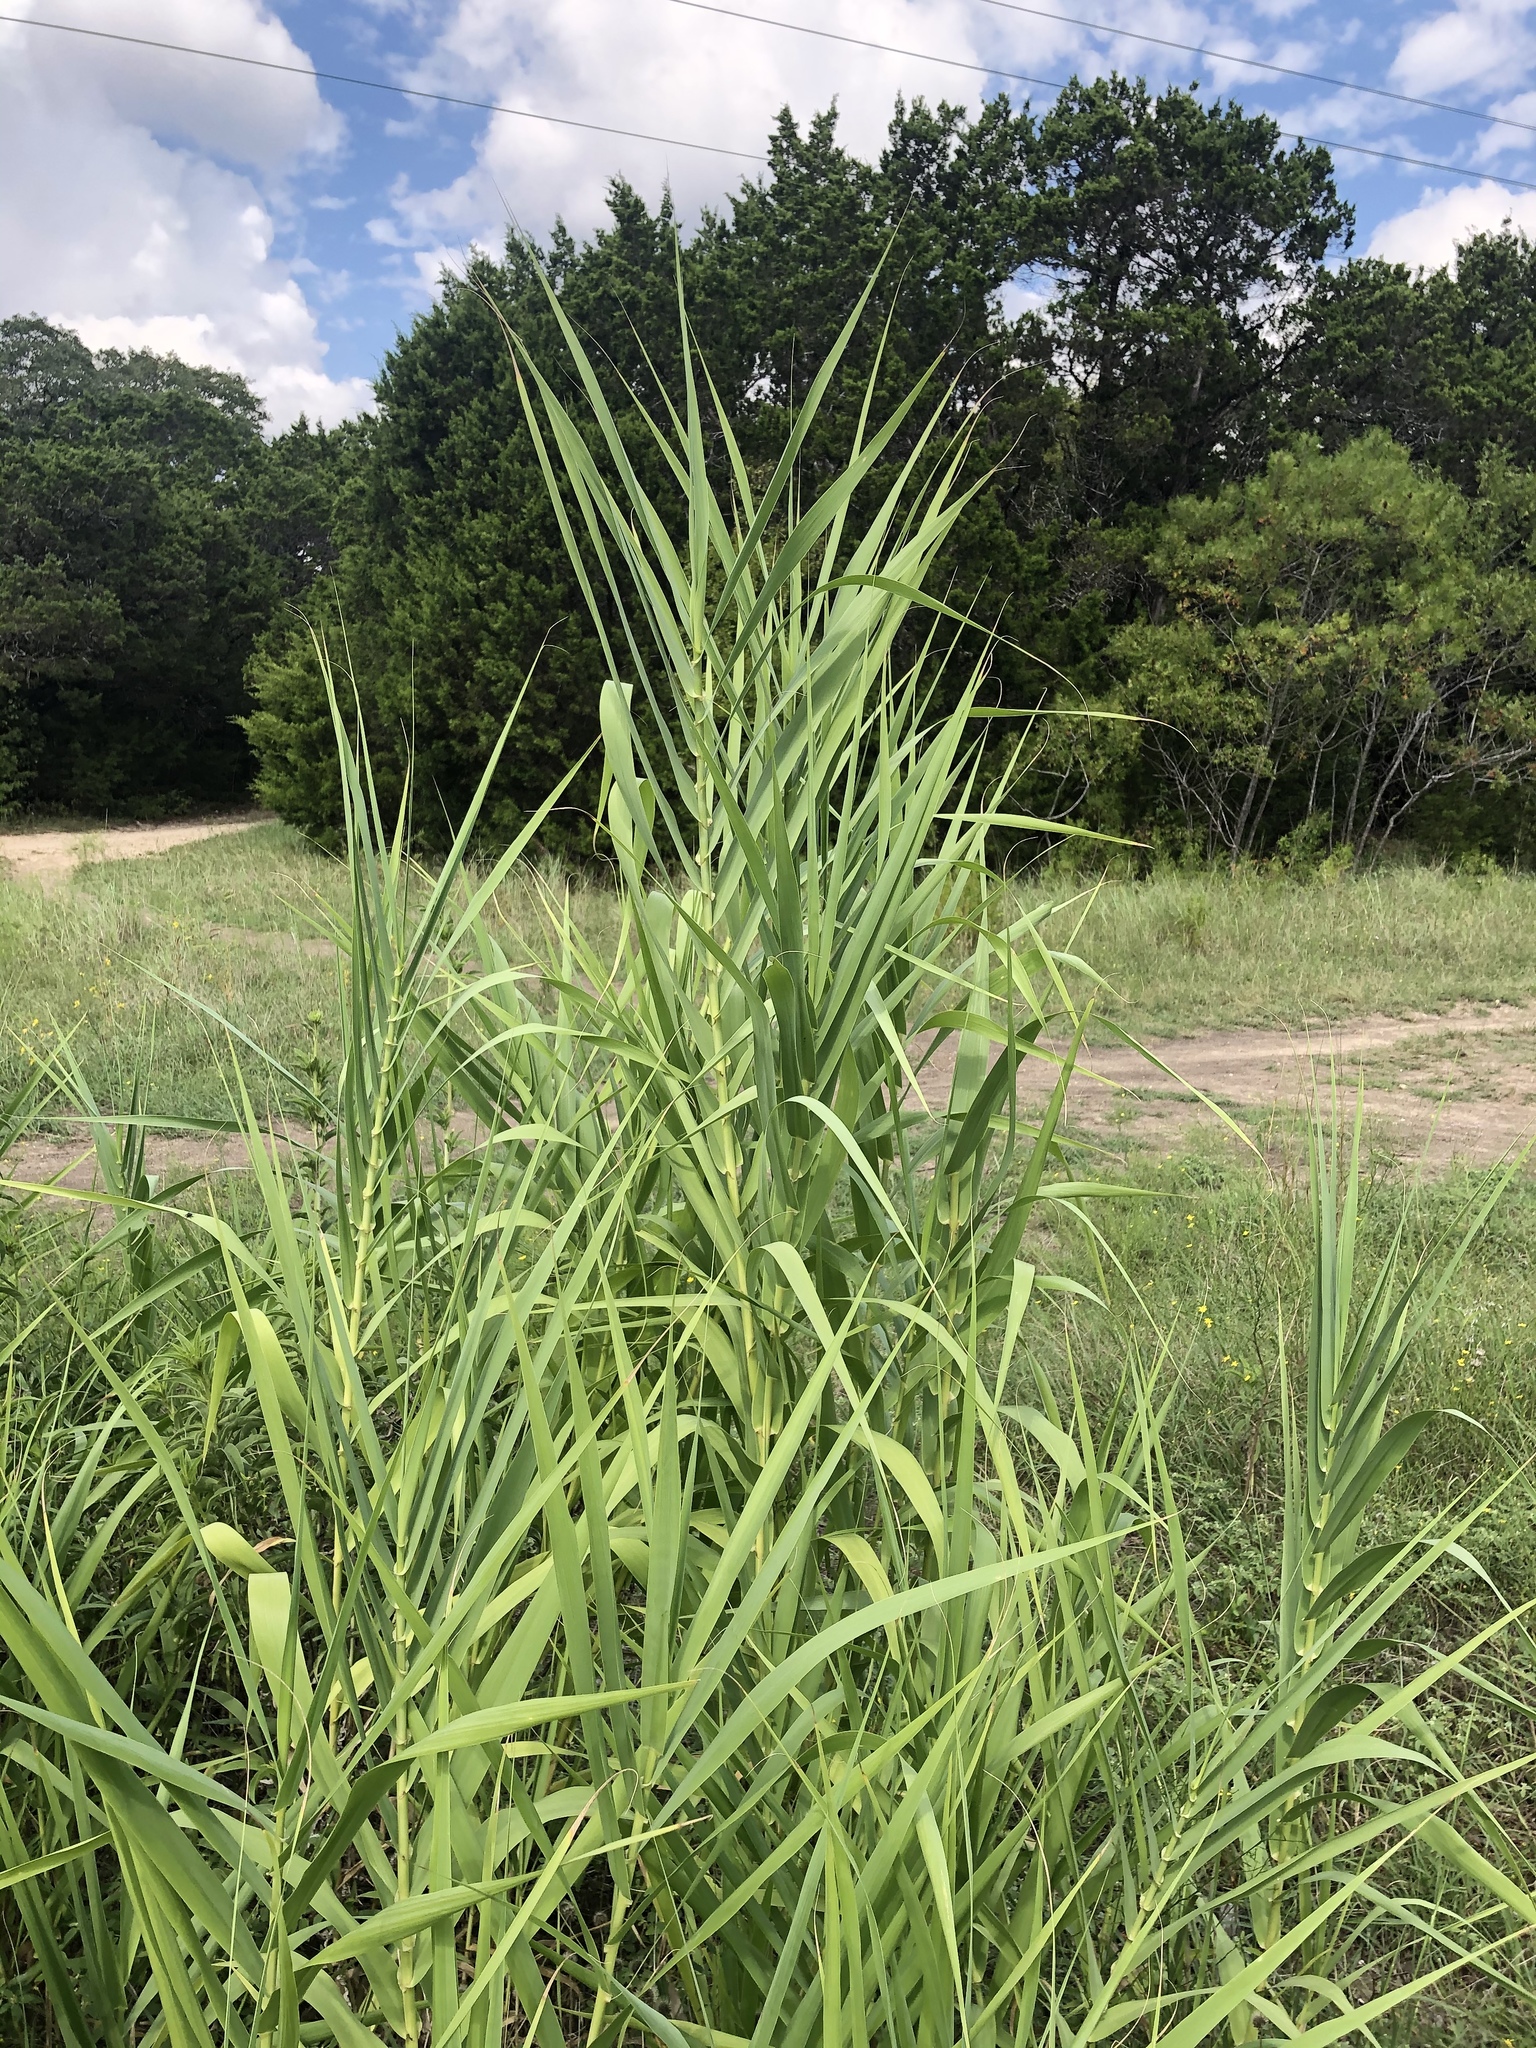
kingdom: Plantae
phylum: Tracheophyta
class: Liliopsida
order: Poales
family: Poaceae
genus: Arundo
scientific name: Arundo donax
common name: Giant reed
